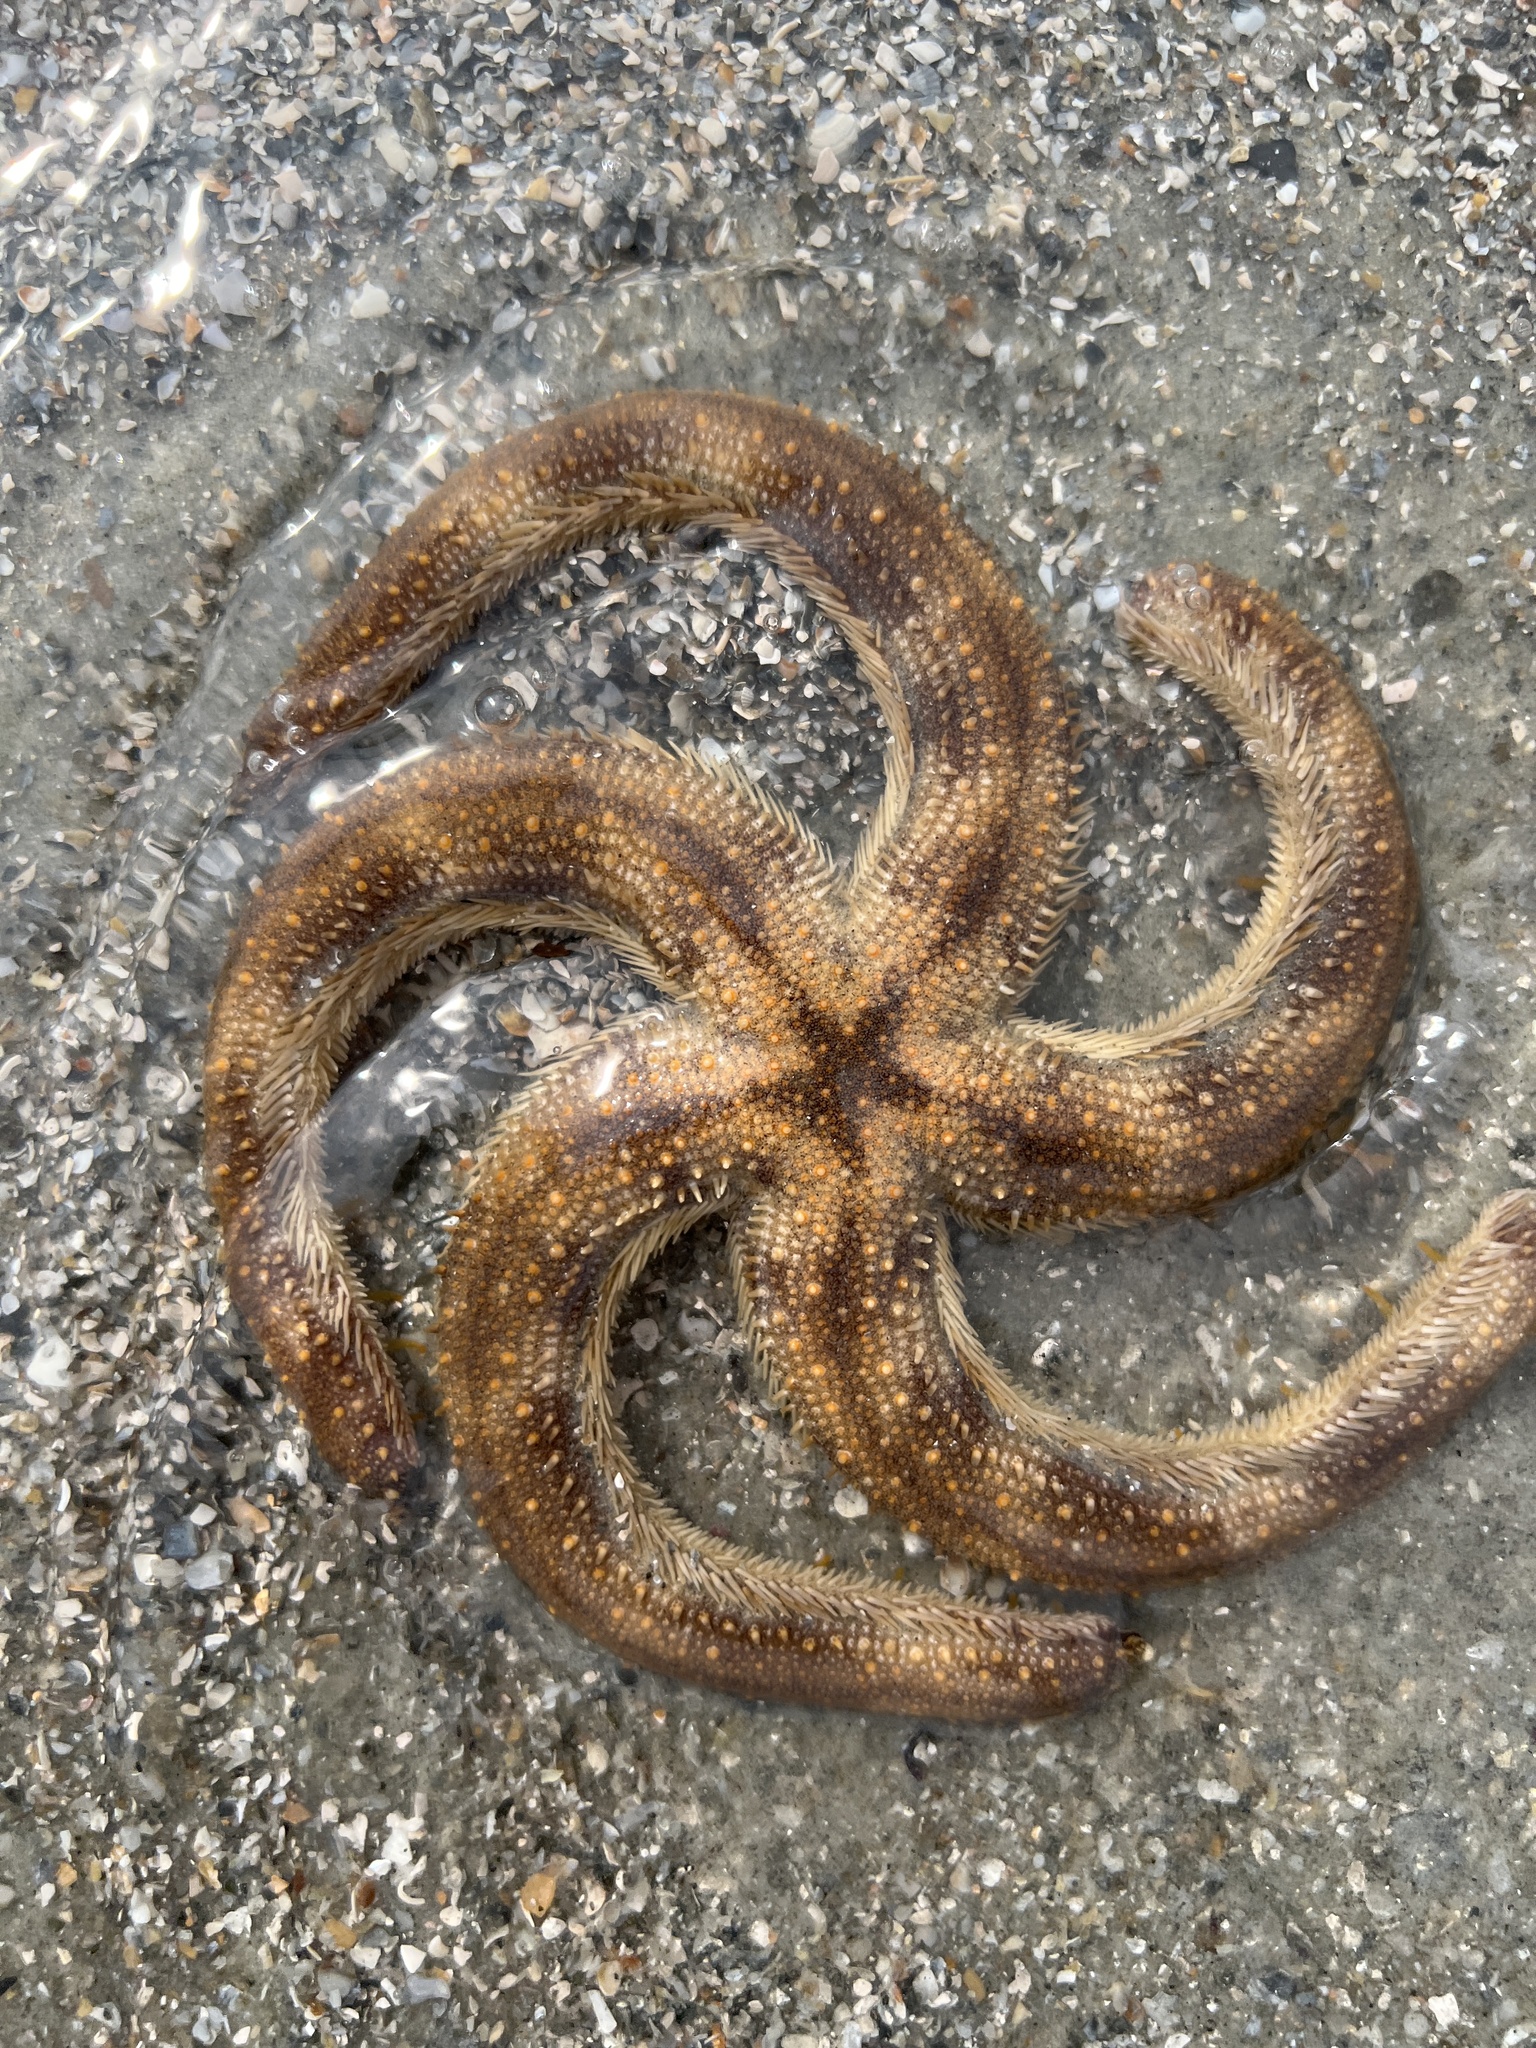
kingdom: Animalia
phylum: Echinodermata
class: Asteroidea
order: Paxillosida
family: Luidiidae
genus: Luidia
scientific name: Luidia alternata
